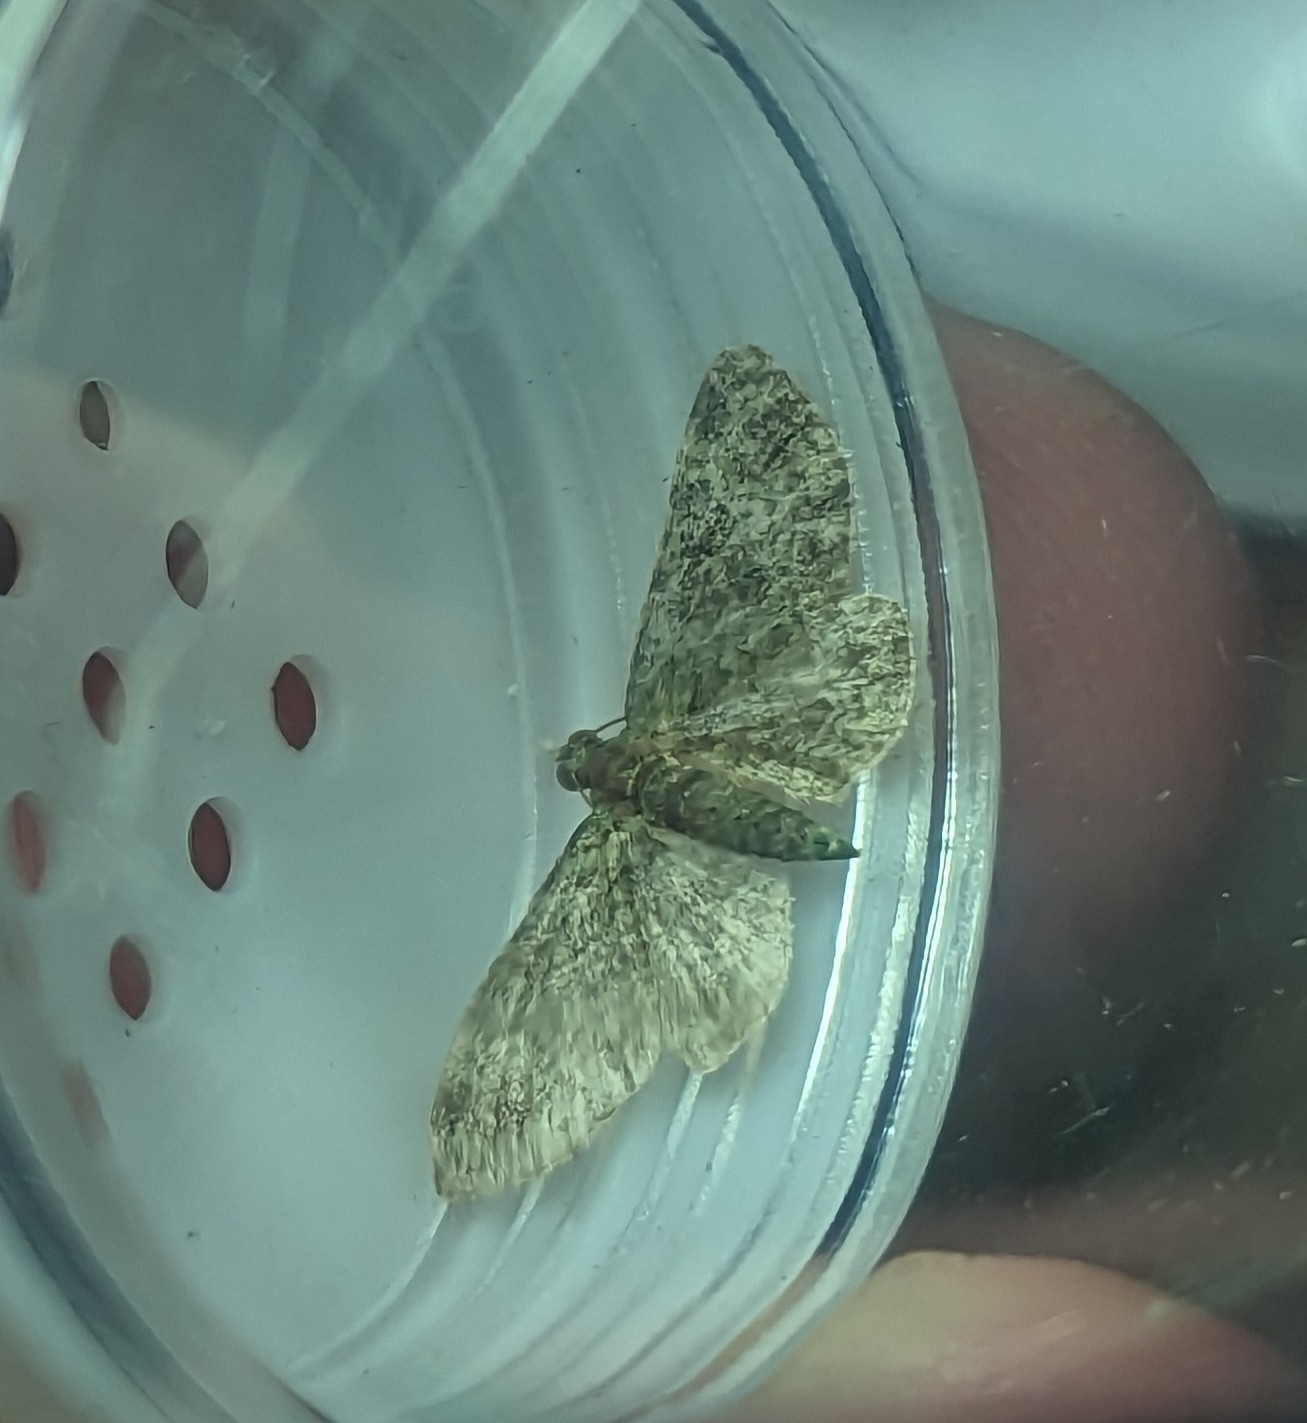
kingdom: Animalia
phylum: Arthropoda
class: Insecta
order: Lepidoptera
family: Geometridae
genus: Pasiphila
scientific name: Pasiphila rectangulata
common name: Green pug
